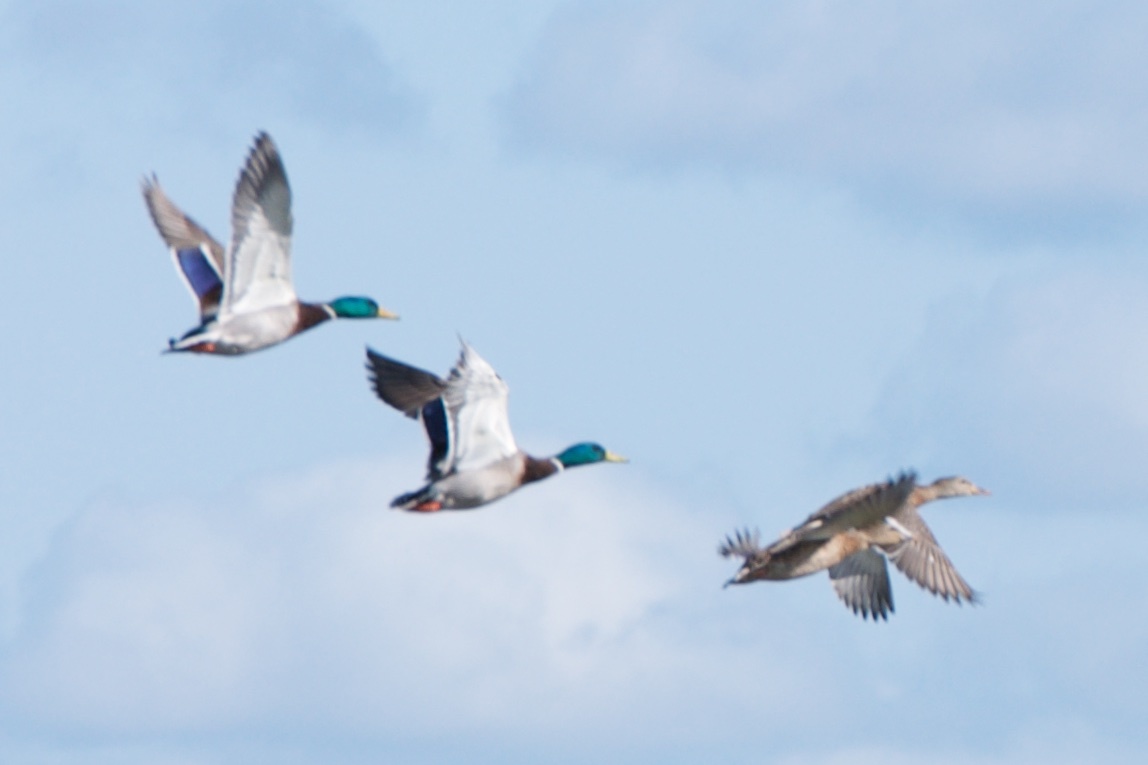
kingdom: Animalia
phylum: Chordata
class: Aves
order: Anseriformes
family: Anatidae
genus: Anas
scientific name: Anas platyrhynchos
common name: Mallard
